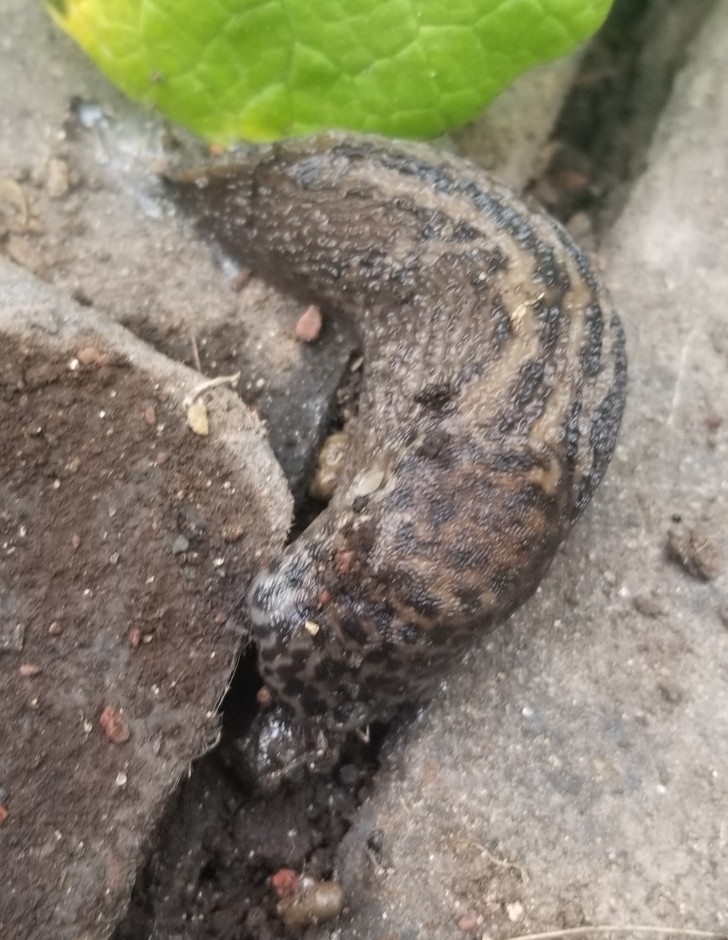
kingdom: Animalia
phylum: Mollusca
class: Gastropoda
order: Stylommatophora
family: Limacidae
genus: Limax
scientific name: Limax maximus
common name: Great grey slug
